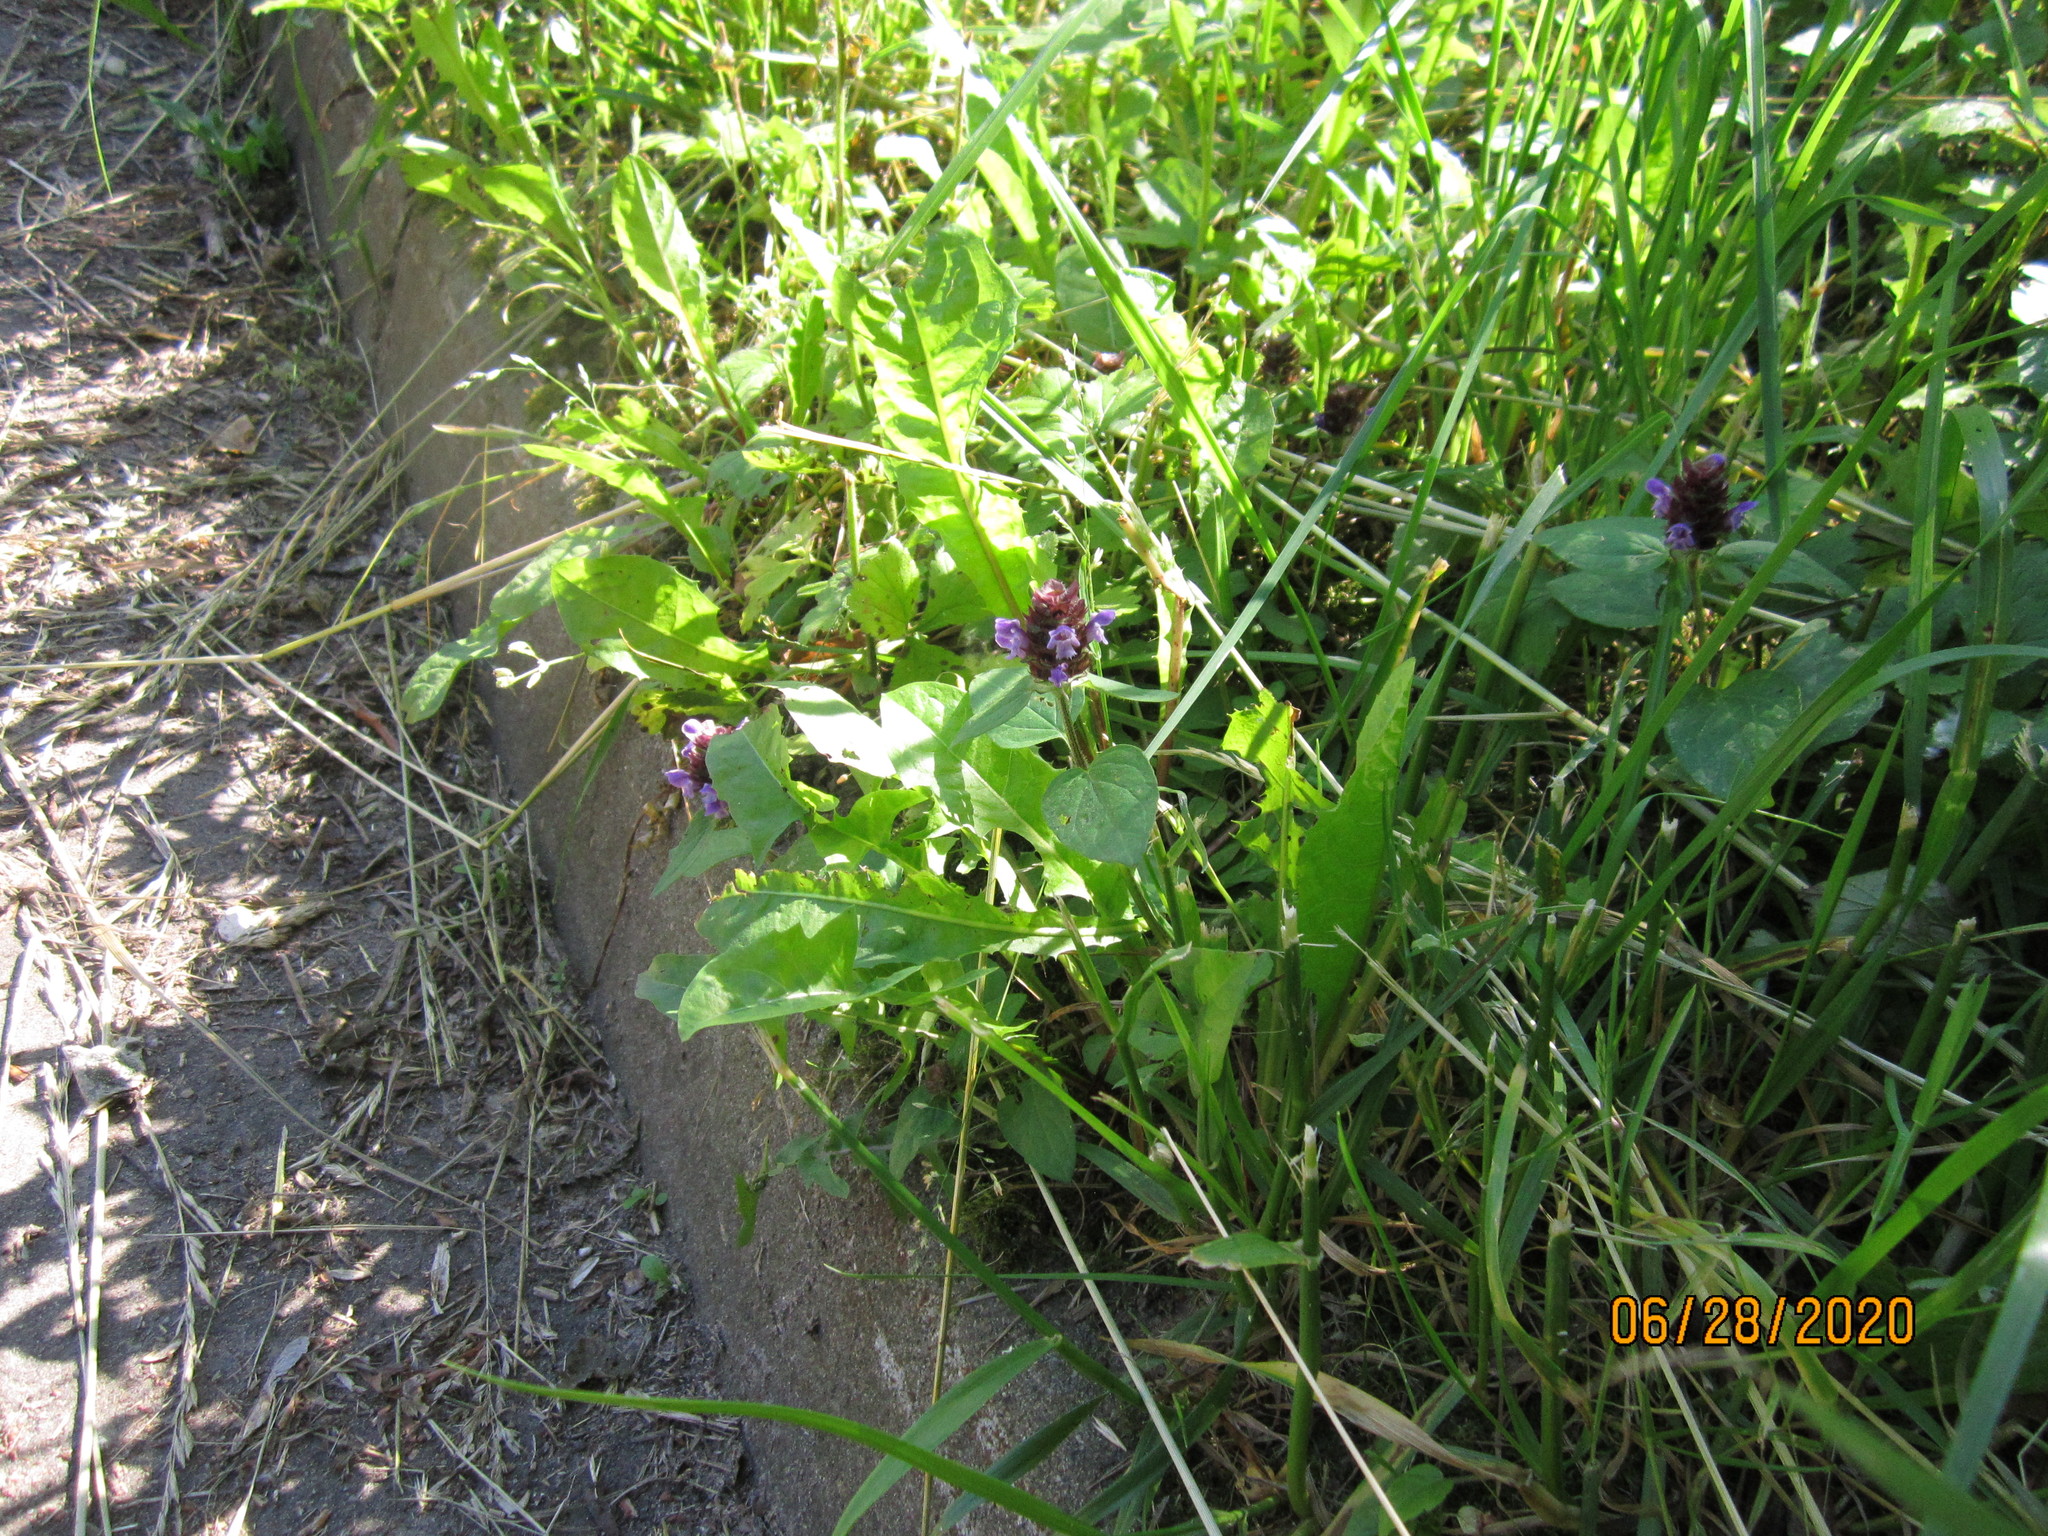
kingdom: Plantae
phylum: Tracheophyta
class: Magnoliopsida
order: Lamiales
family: Lamiaceae
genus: Prunella
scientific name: Prunella vulgaris
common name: Heal-all
